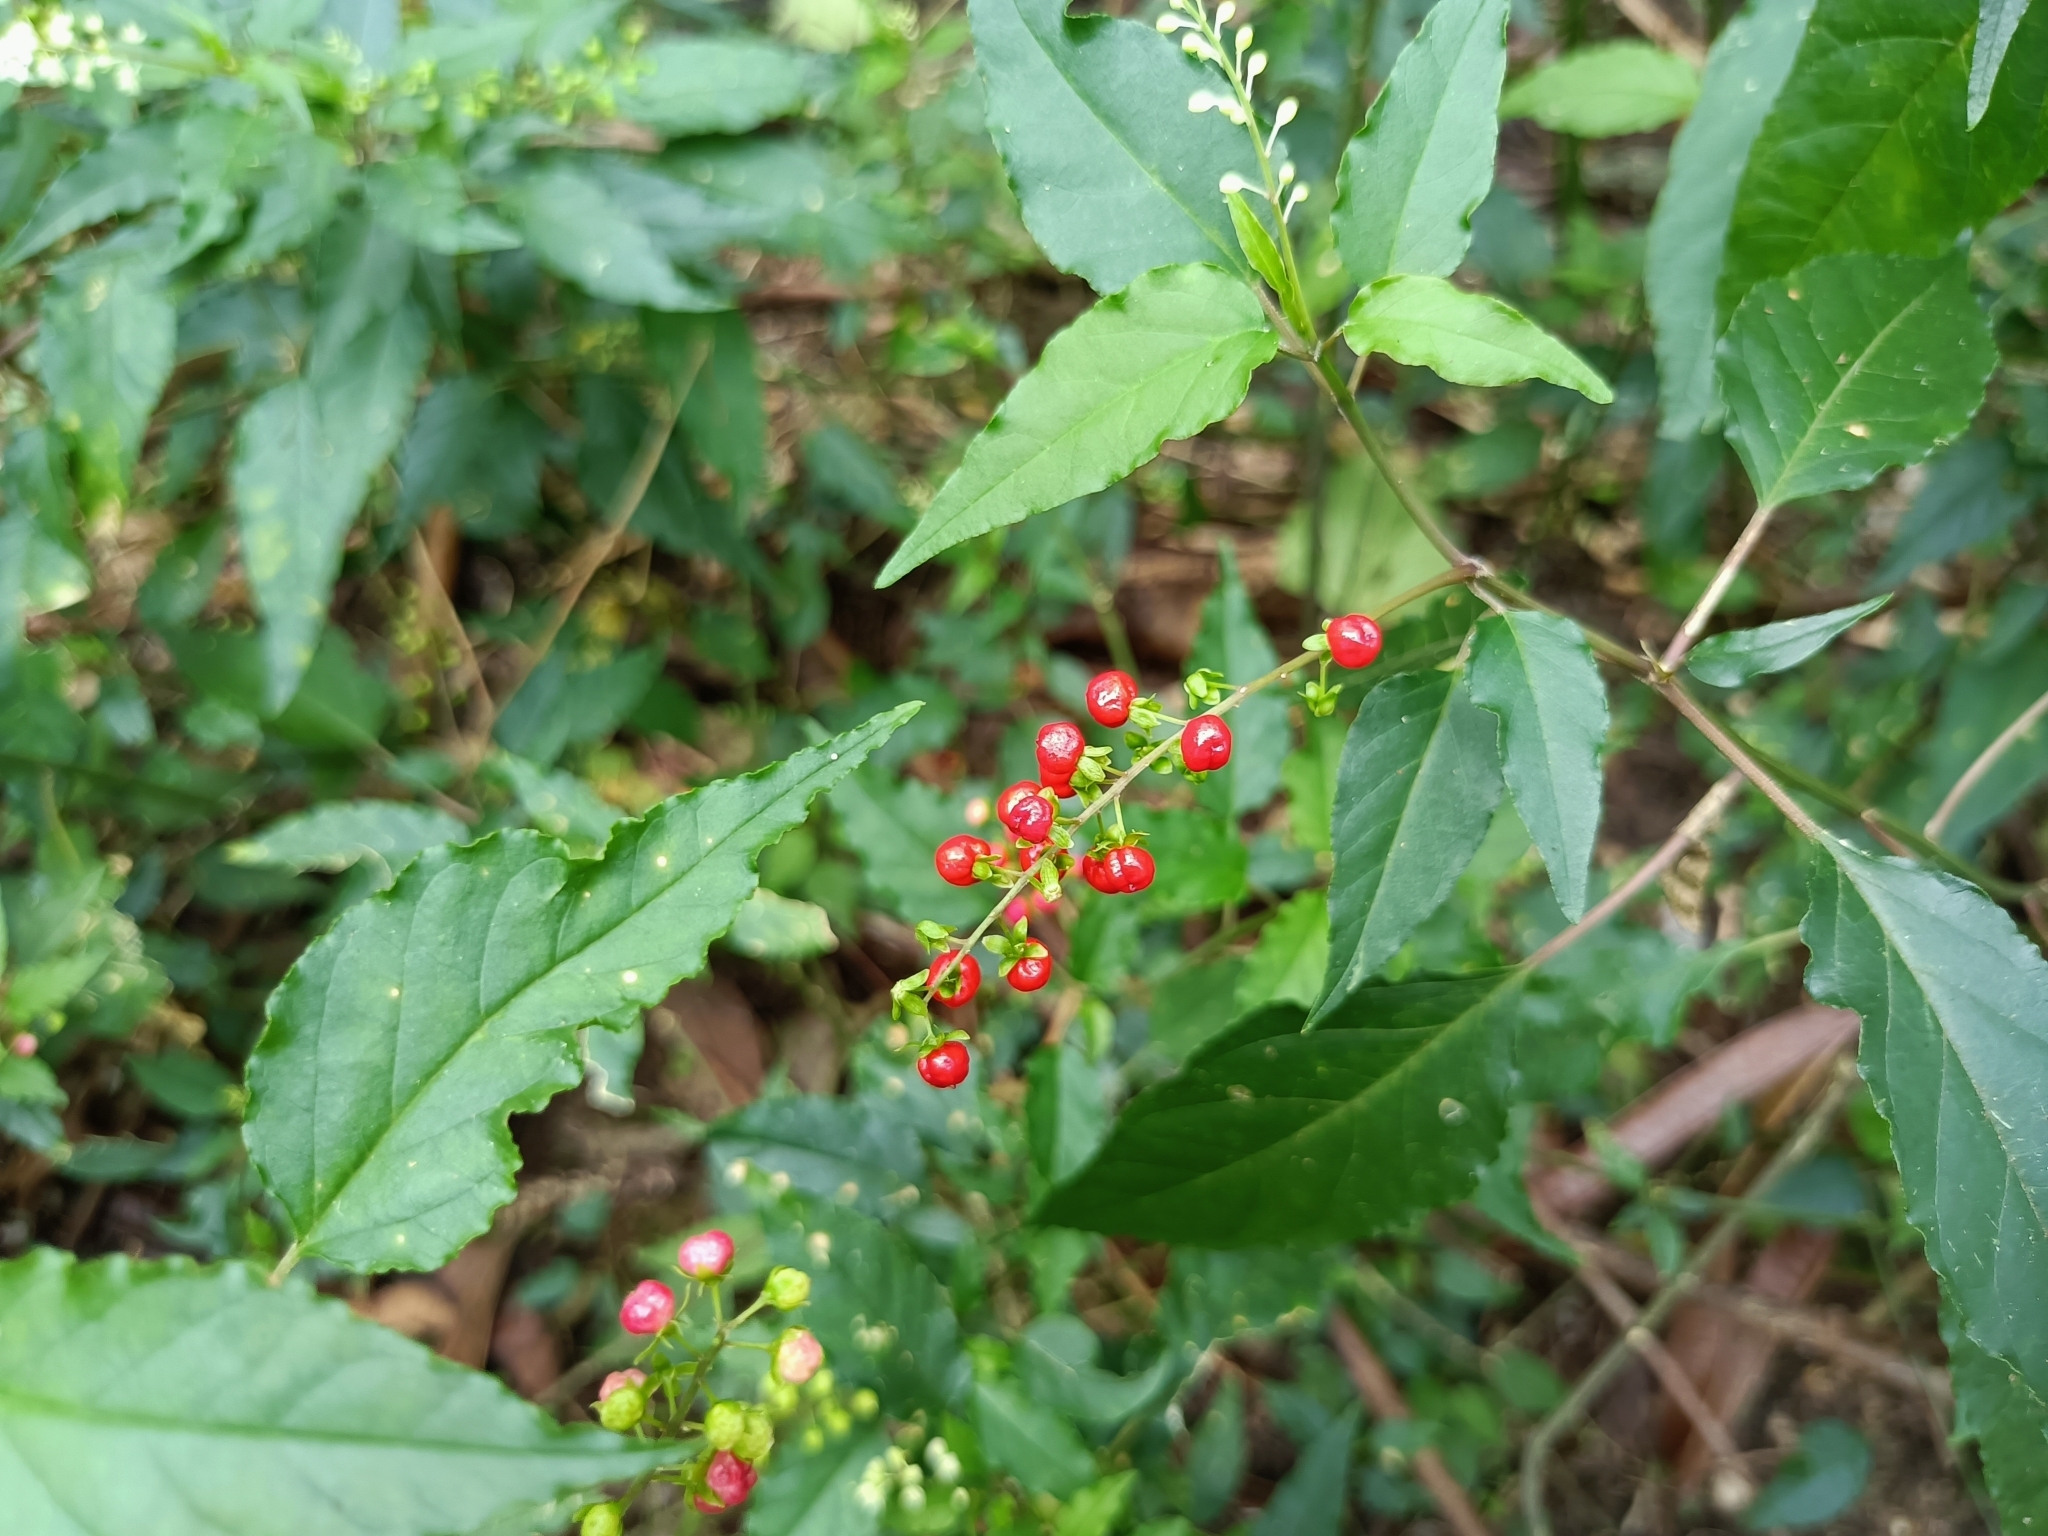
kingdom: Plantae
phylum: Tracheophyta
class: Magnoliopsida
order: Caryophyllales
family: Phytolaccaceae
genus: Rivina
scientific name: Rivina humilis
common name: Rougeplant
